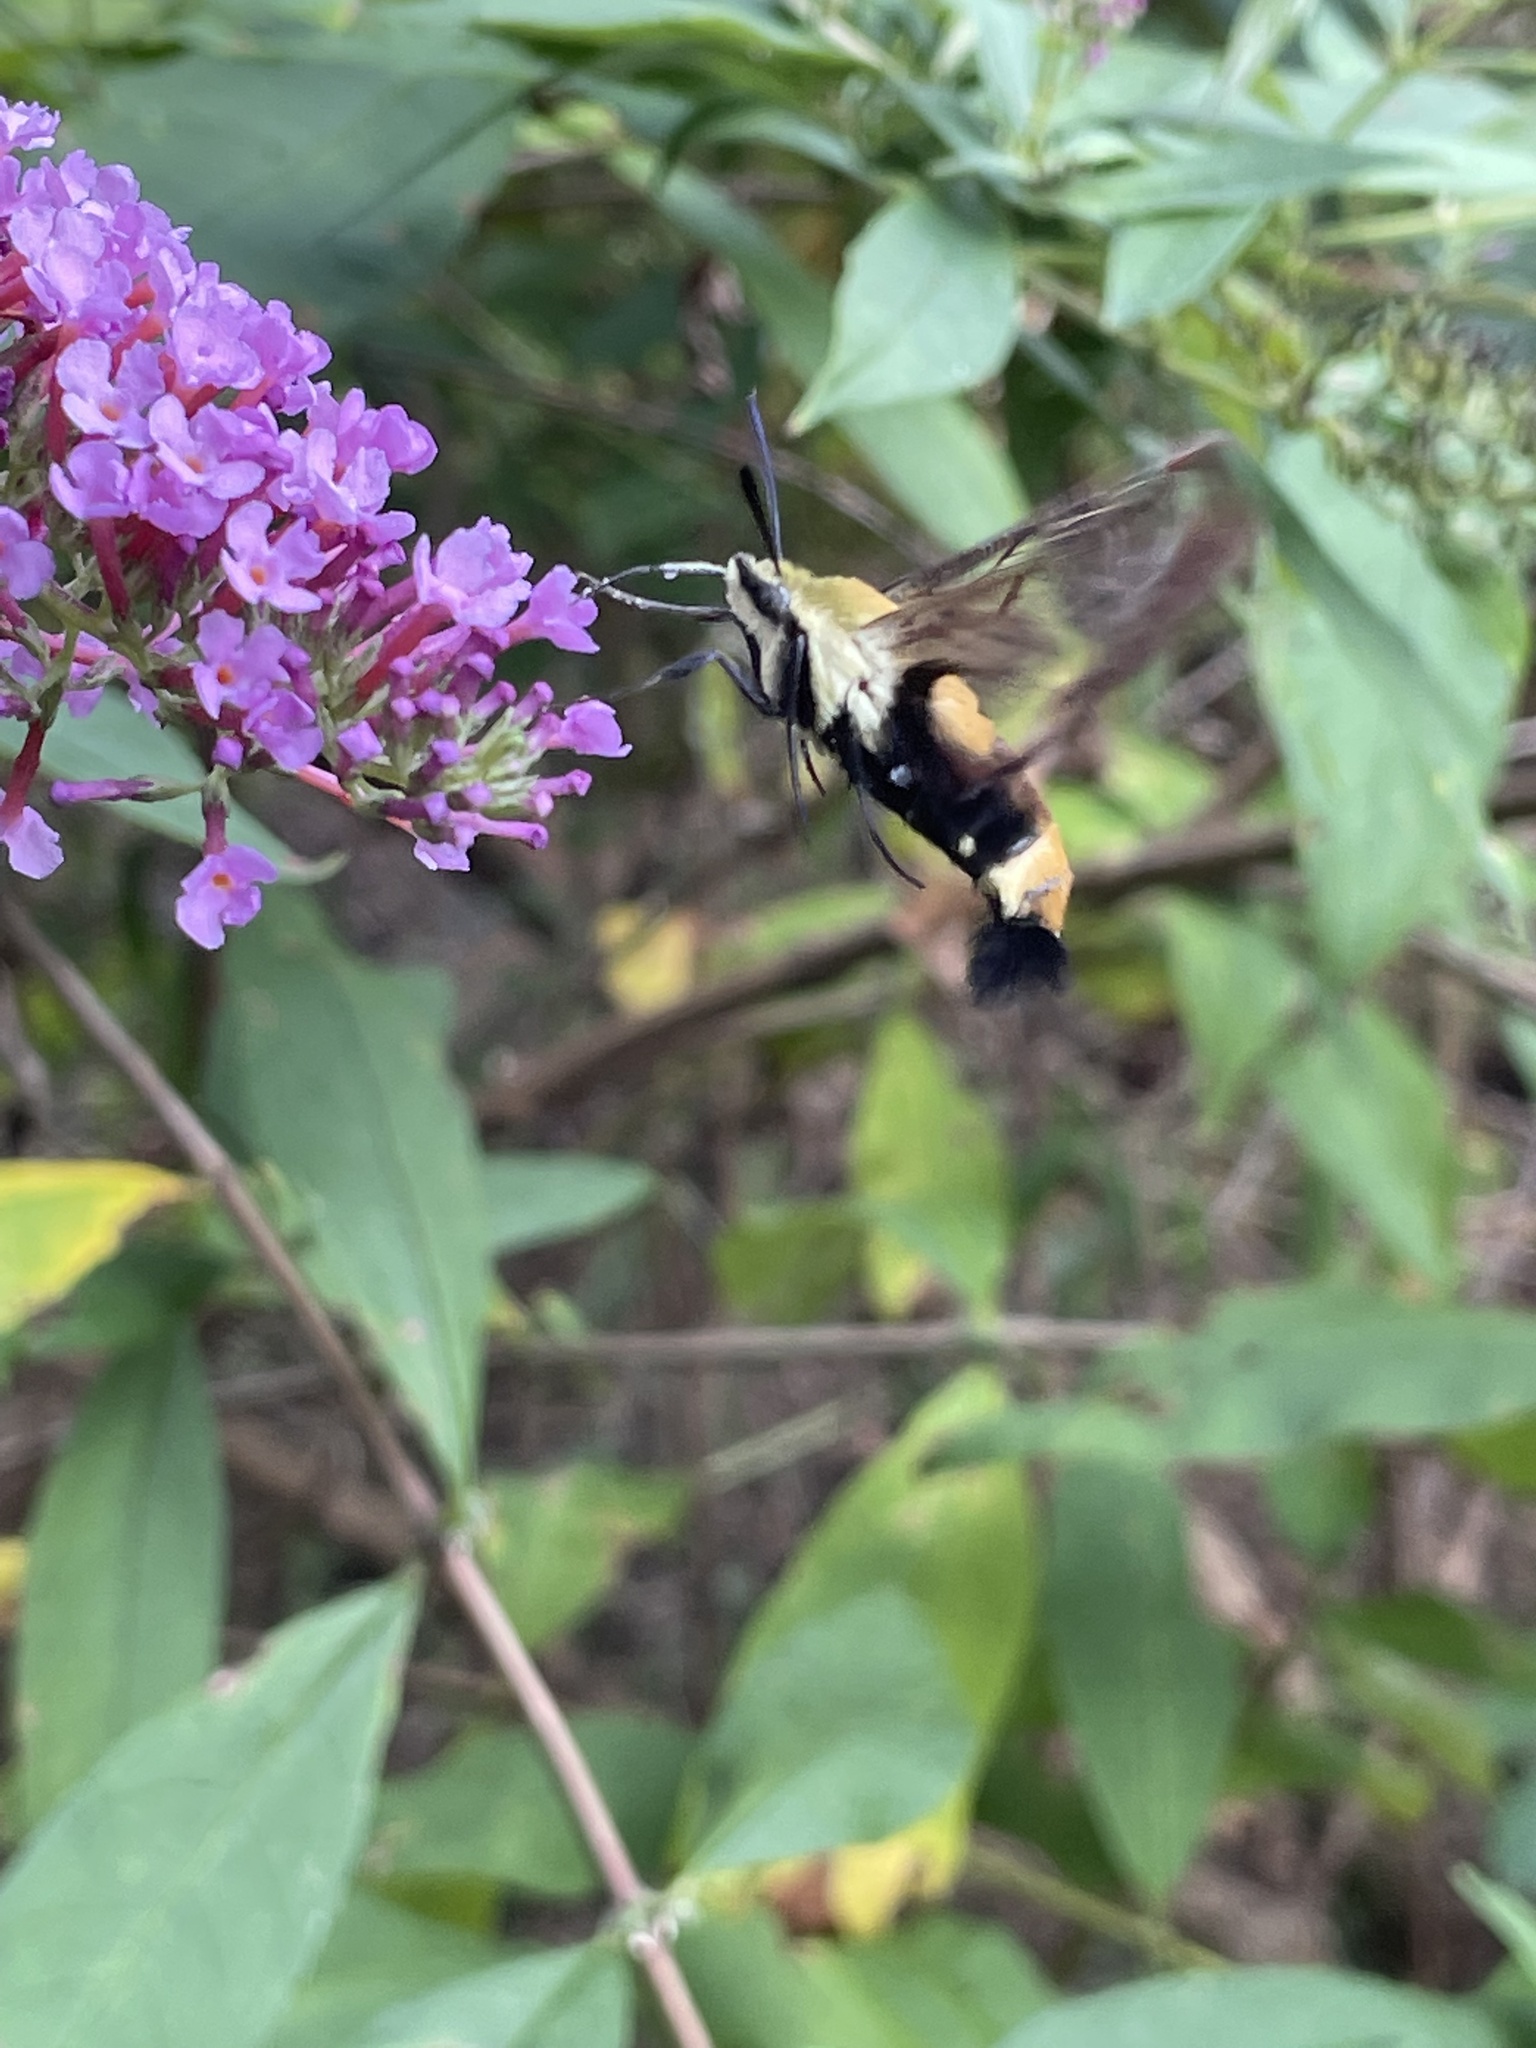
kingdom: Animalia
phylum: Arthropoda
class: Insecta
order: Lepidoptera
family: Sphingidae
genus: Hemaris
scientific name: Hemaris diffinis
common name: Bumblebee moth
